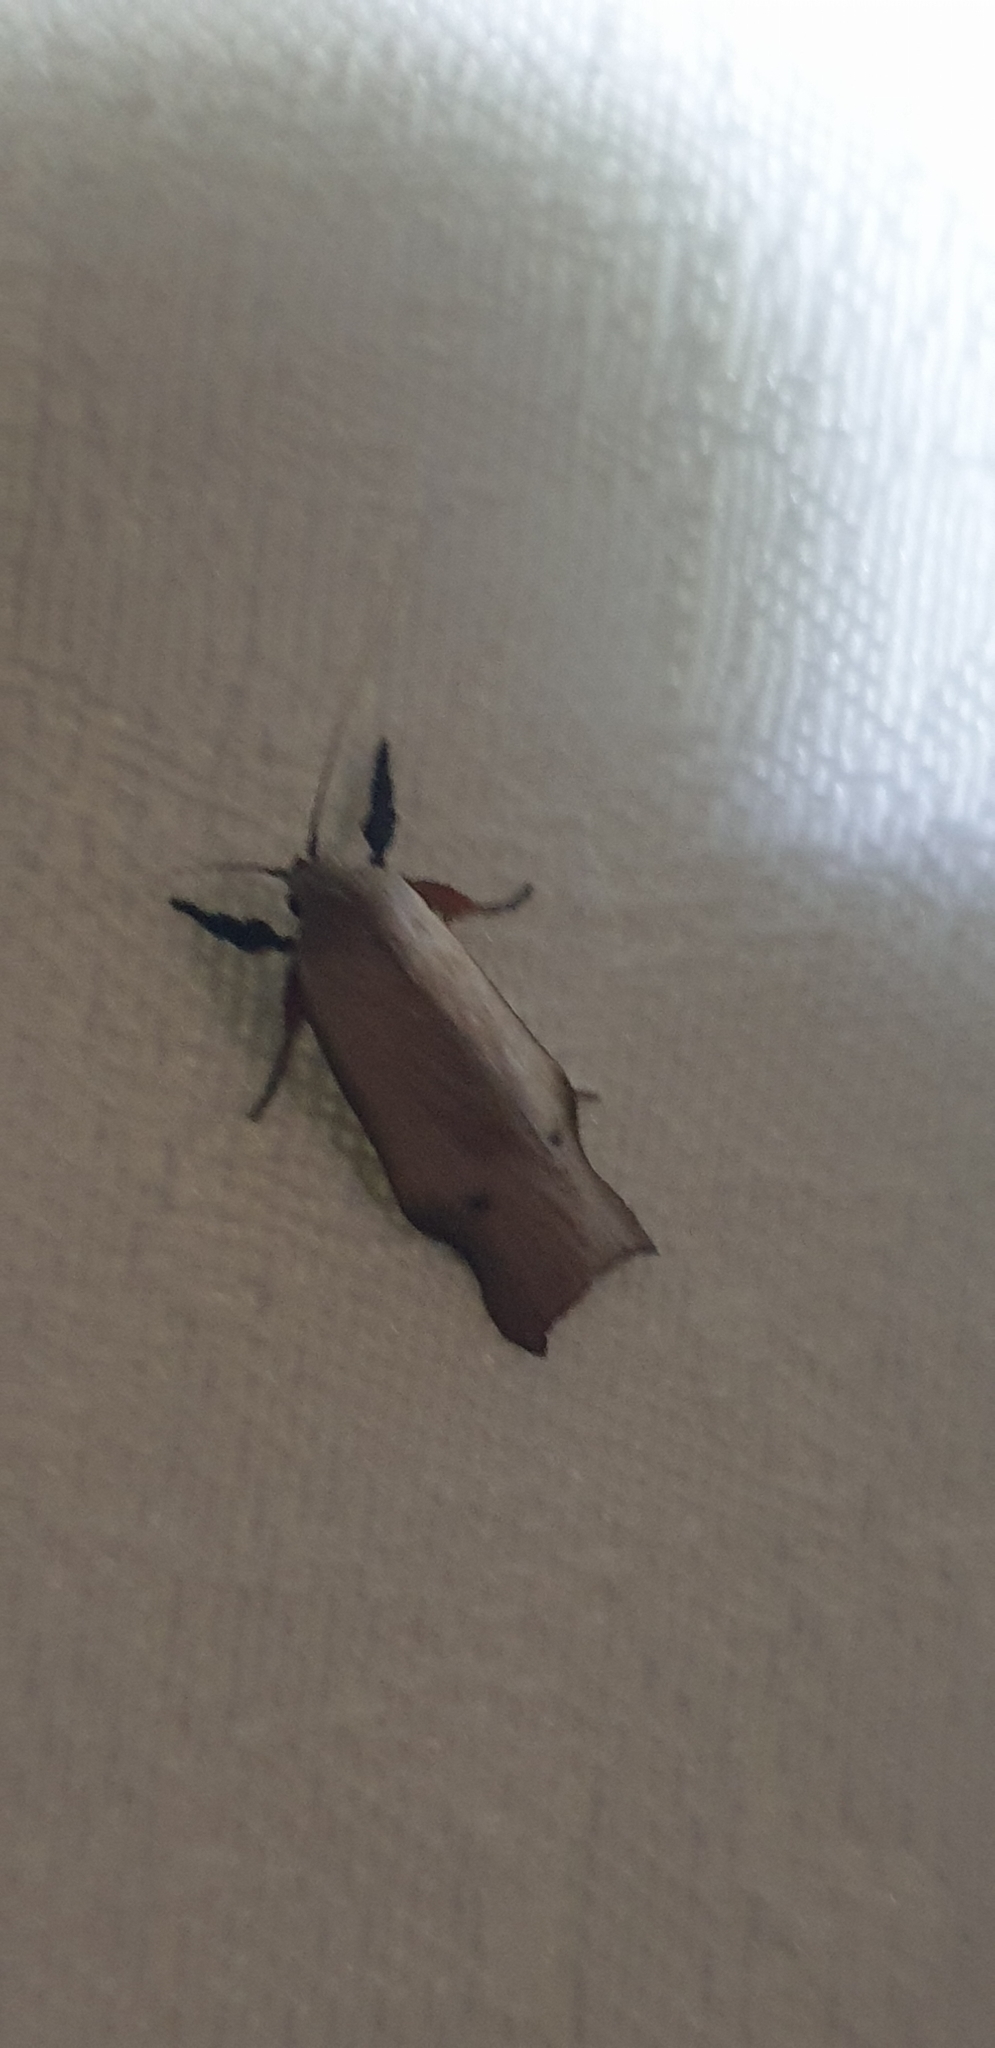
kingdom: Animalia
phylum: Arthropoda
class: Insecta
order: Lepidoptera
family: Xyloryctidae
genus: Echiomima
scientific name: Echiomima mythica
